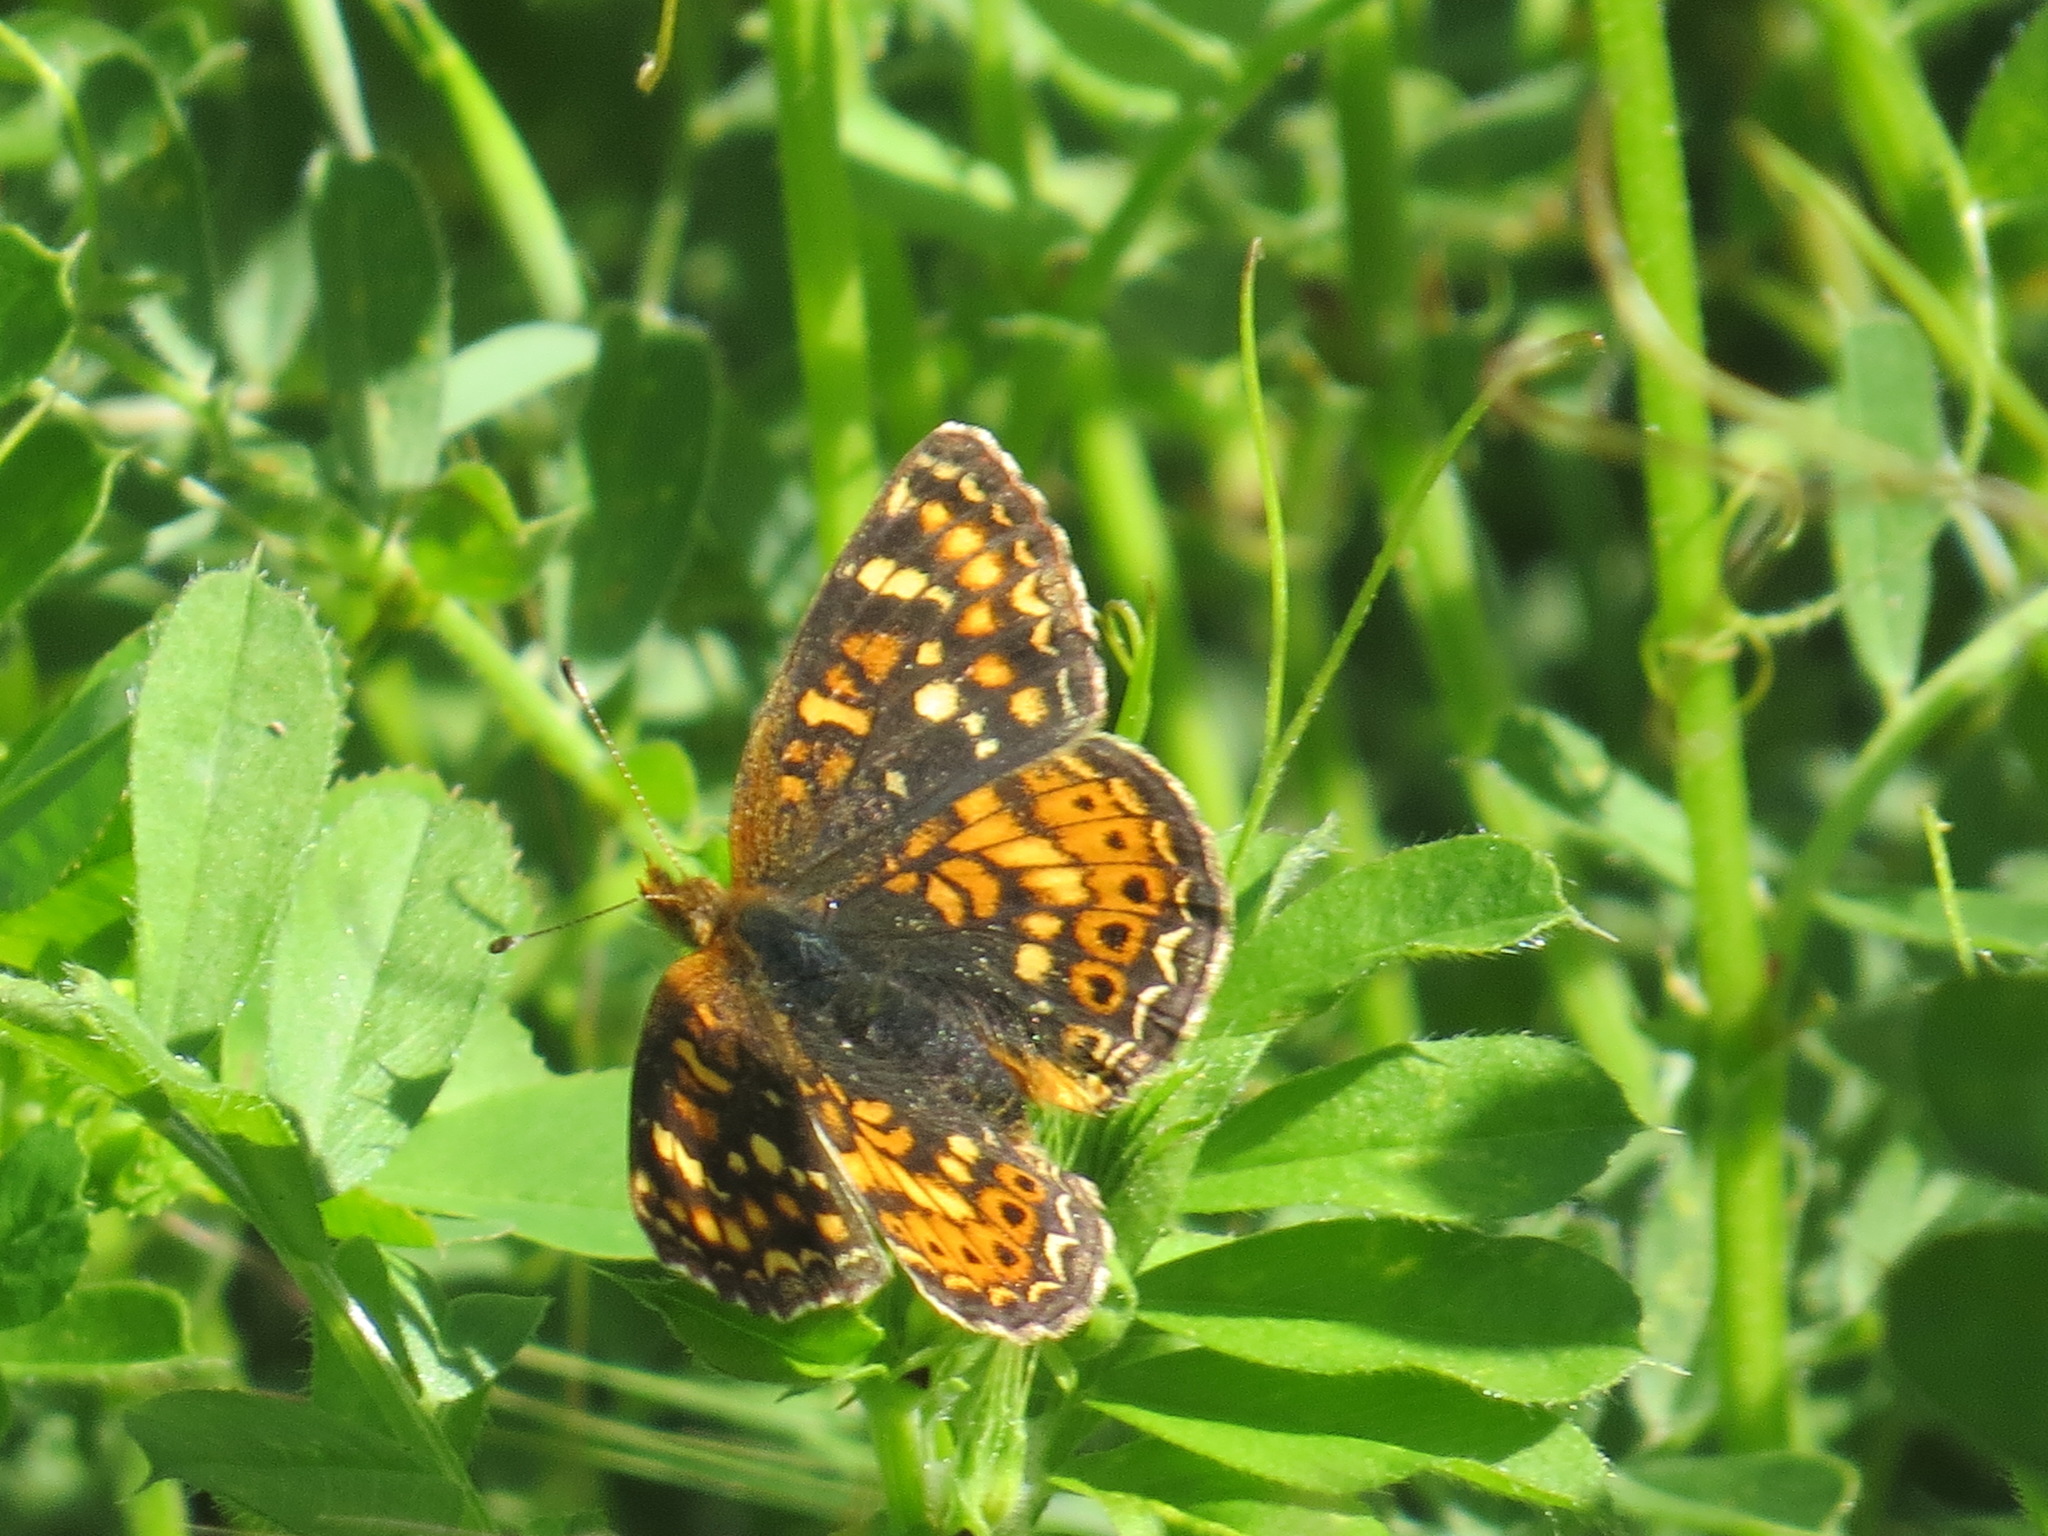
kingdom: Animalia
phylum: Arthropoda
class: Insecta
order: Lepidoptera
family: Nymphalidae
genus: Phyciodes
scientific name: Phyciodes tharos
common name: Pearl crescent
